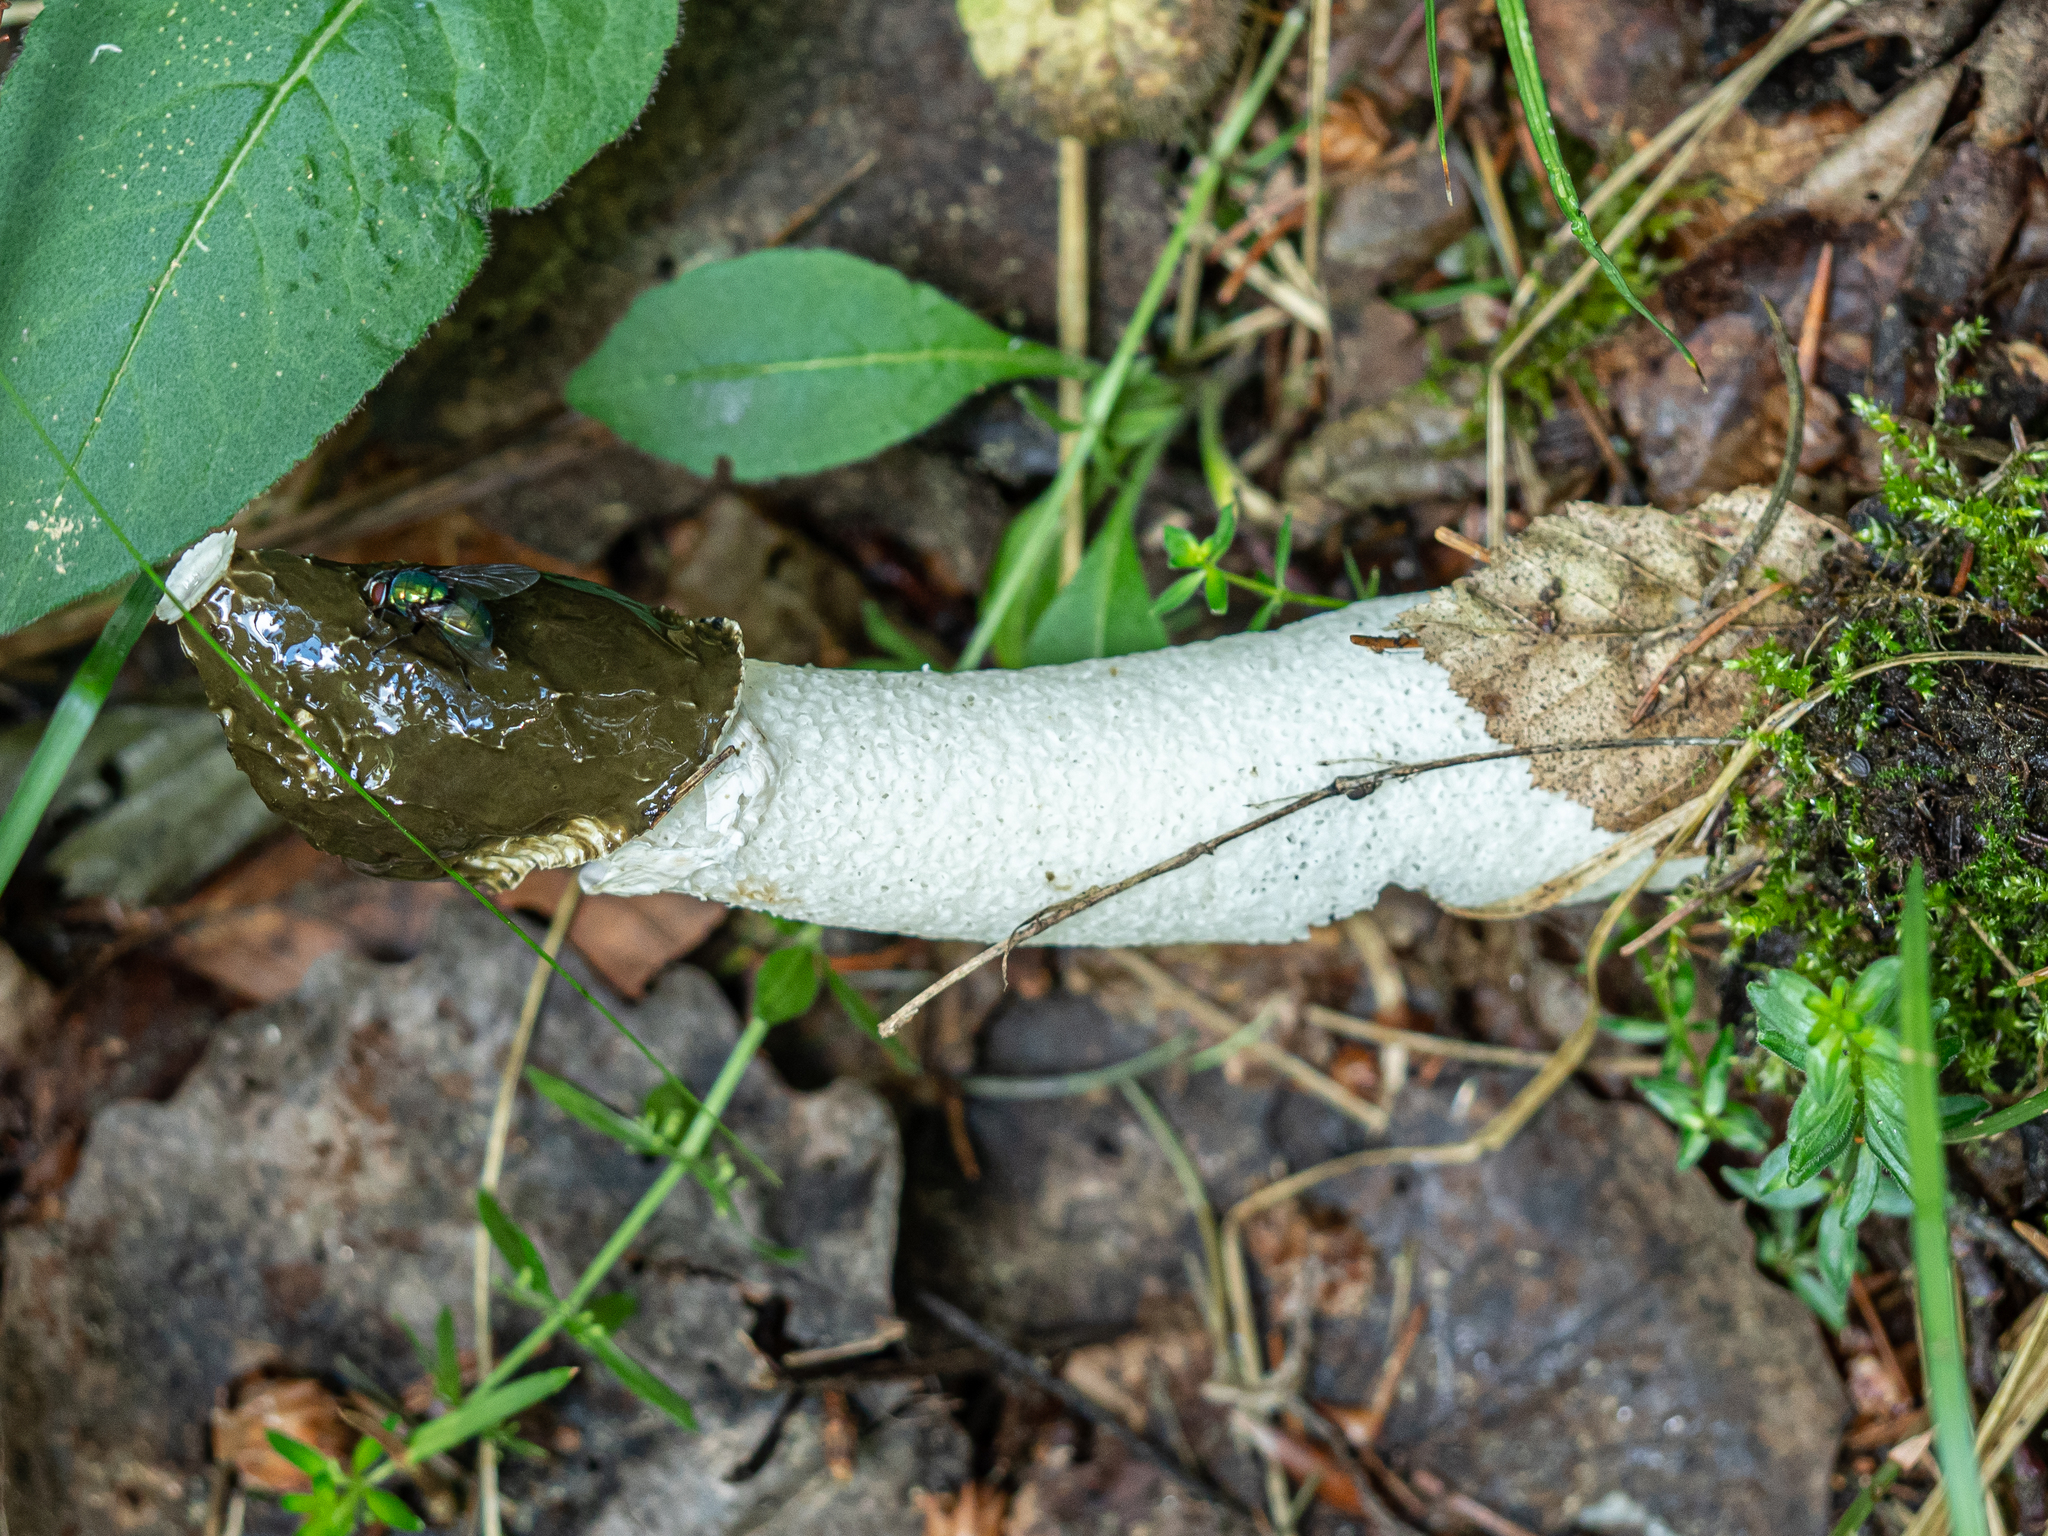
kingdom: Fungi
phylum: Basidiomycota
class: Agaricomycetes
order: Phallales
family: Phallaceae
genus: Phallus
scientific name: Phallus impudicus
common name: Common stinkhorn
